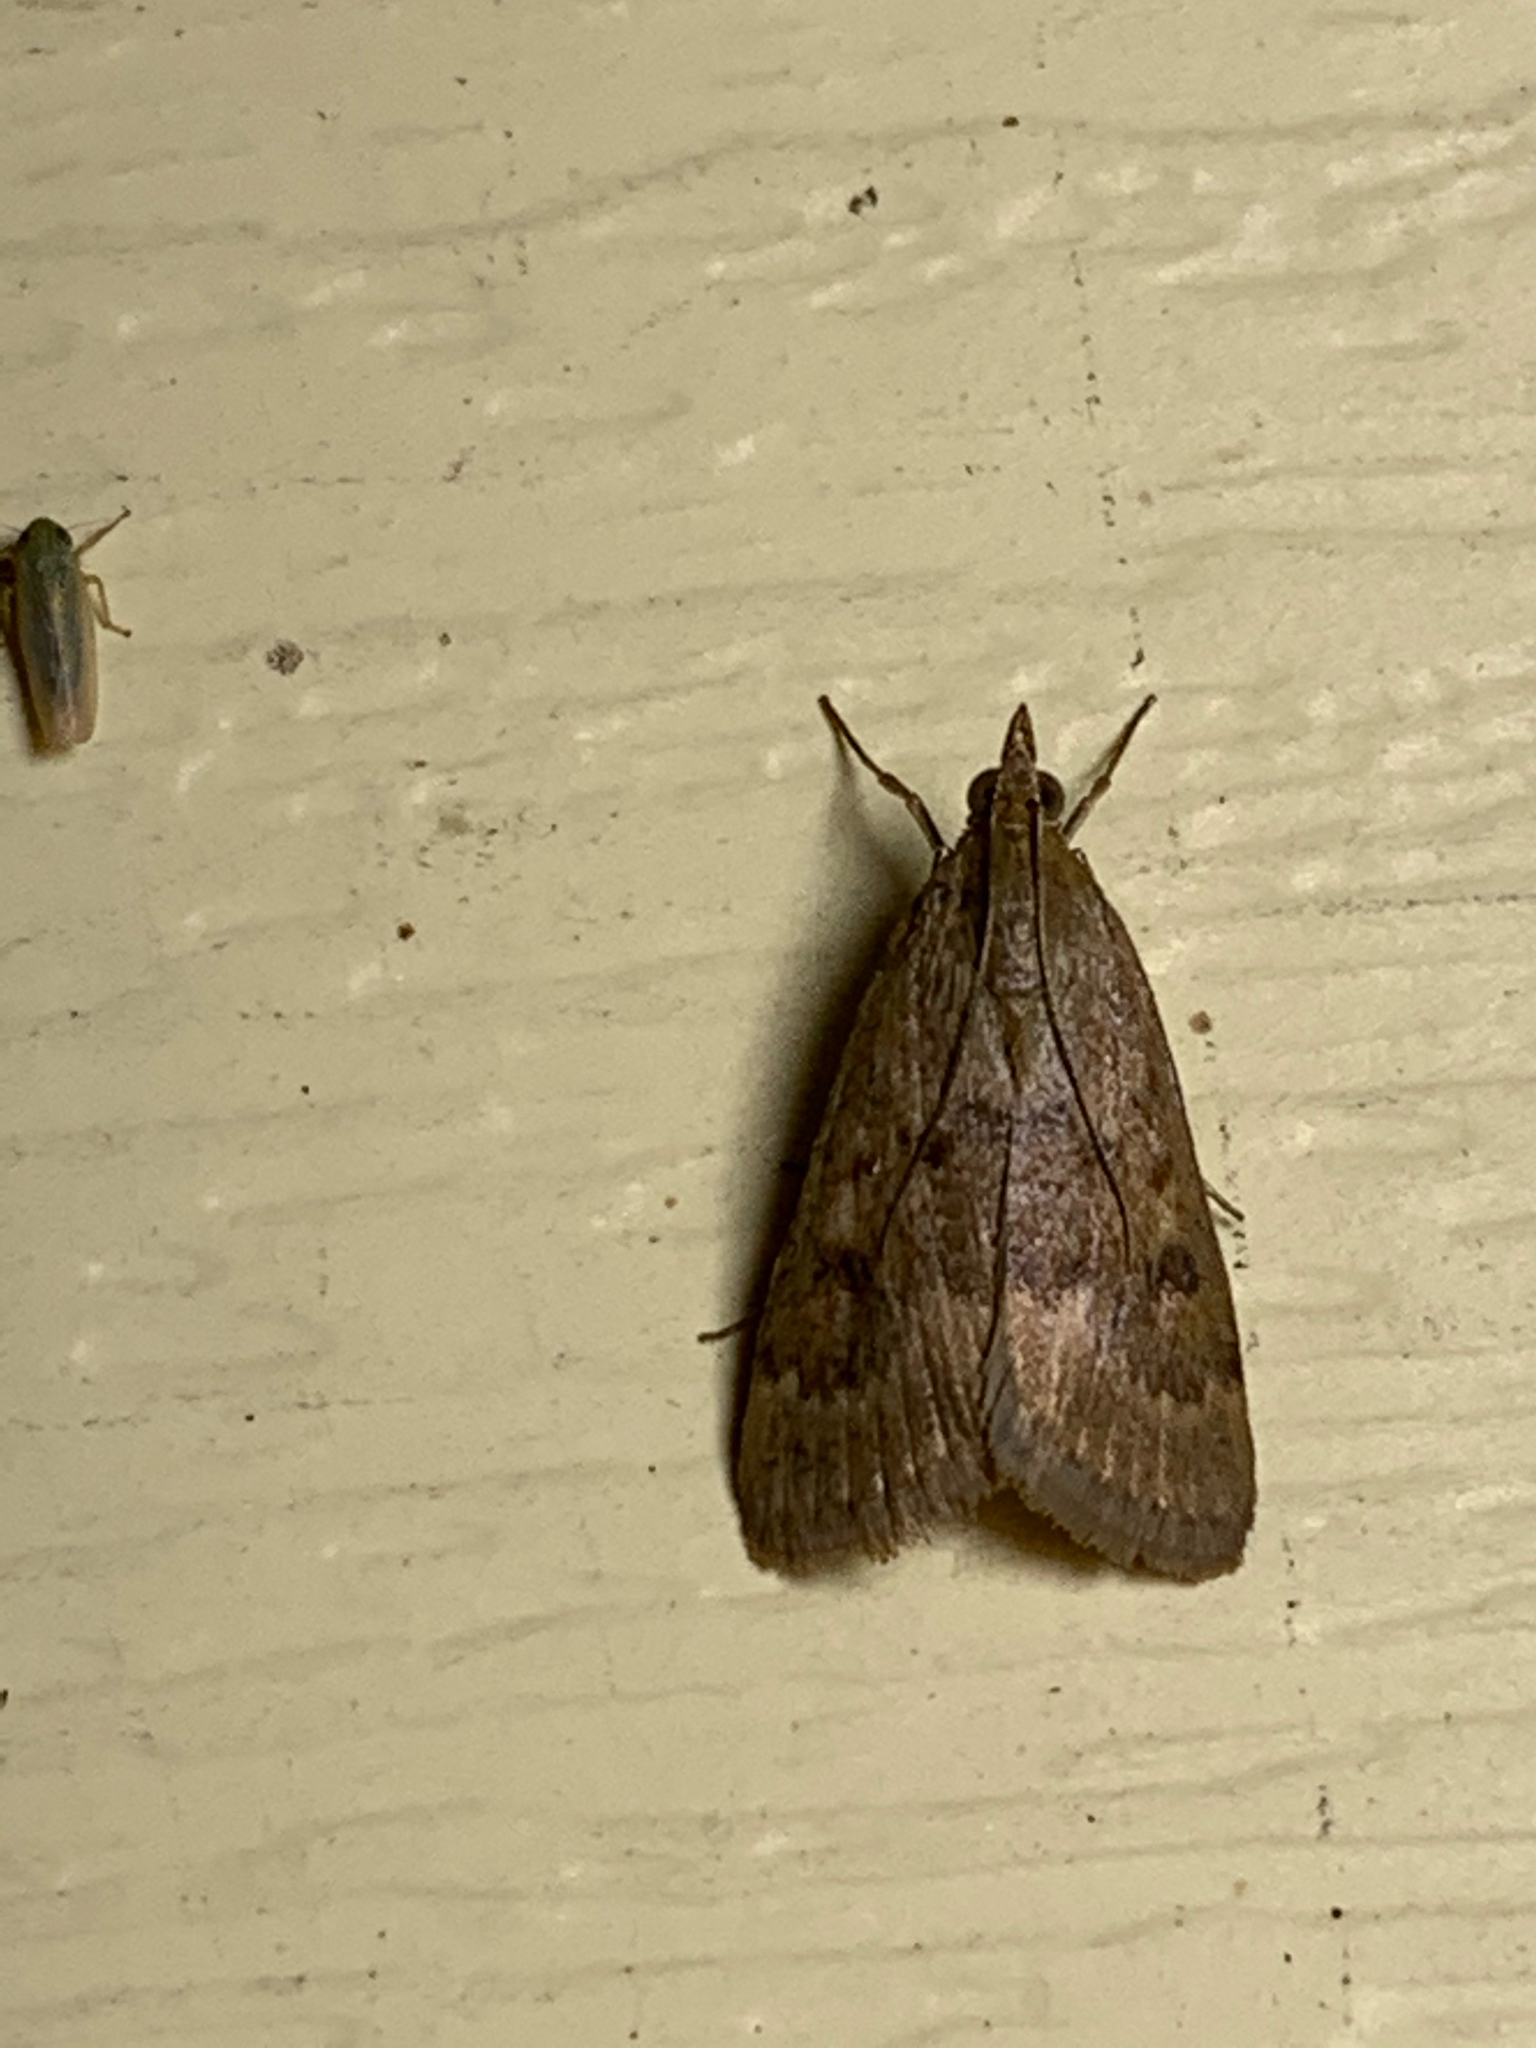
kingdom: Animalia
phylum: Arthropoda
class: Insecta
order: Lepidoptera
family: Crambidae
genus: Achyra
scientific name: Achyra rantalis
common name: Garden webworm
